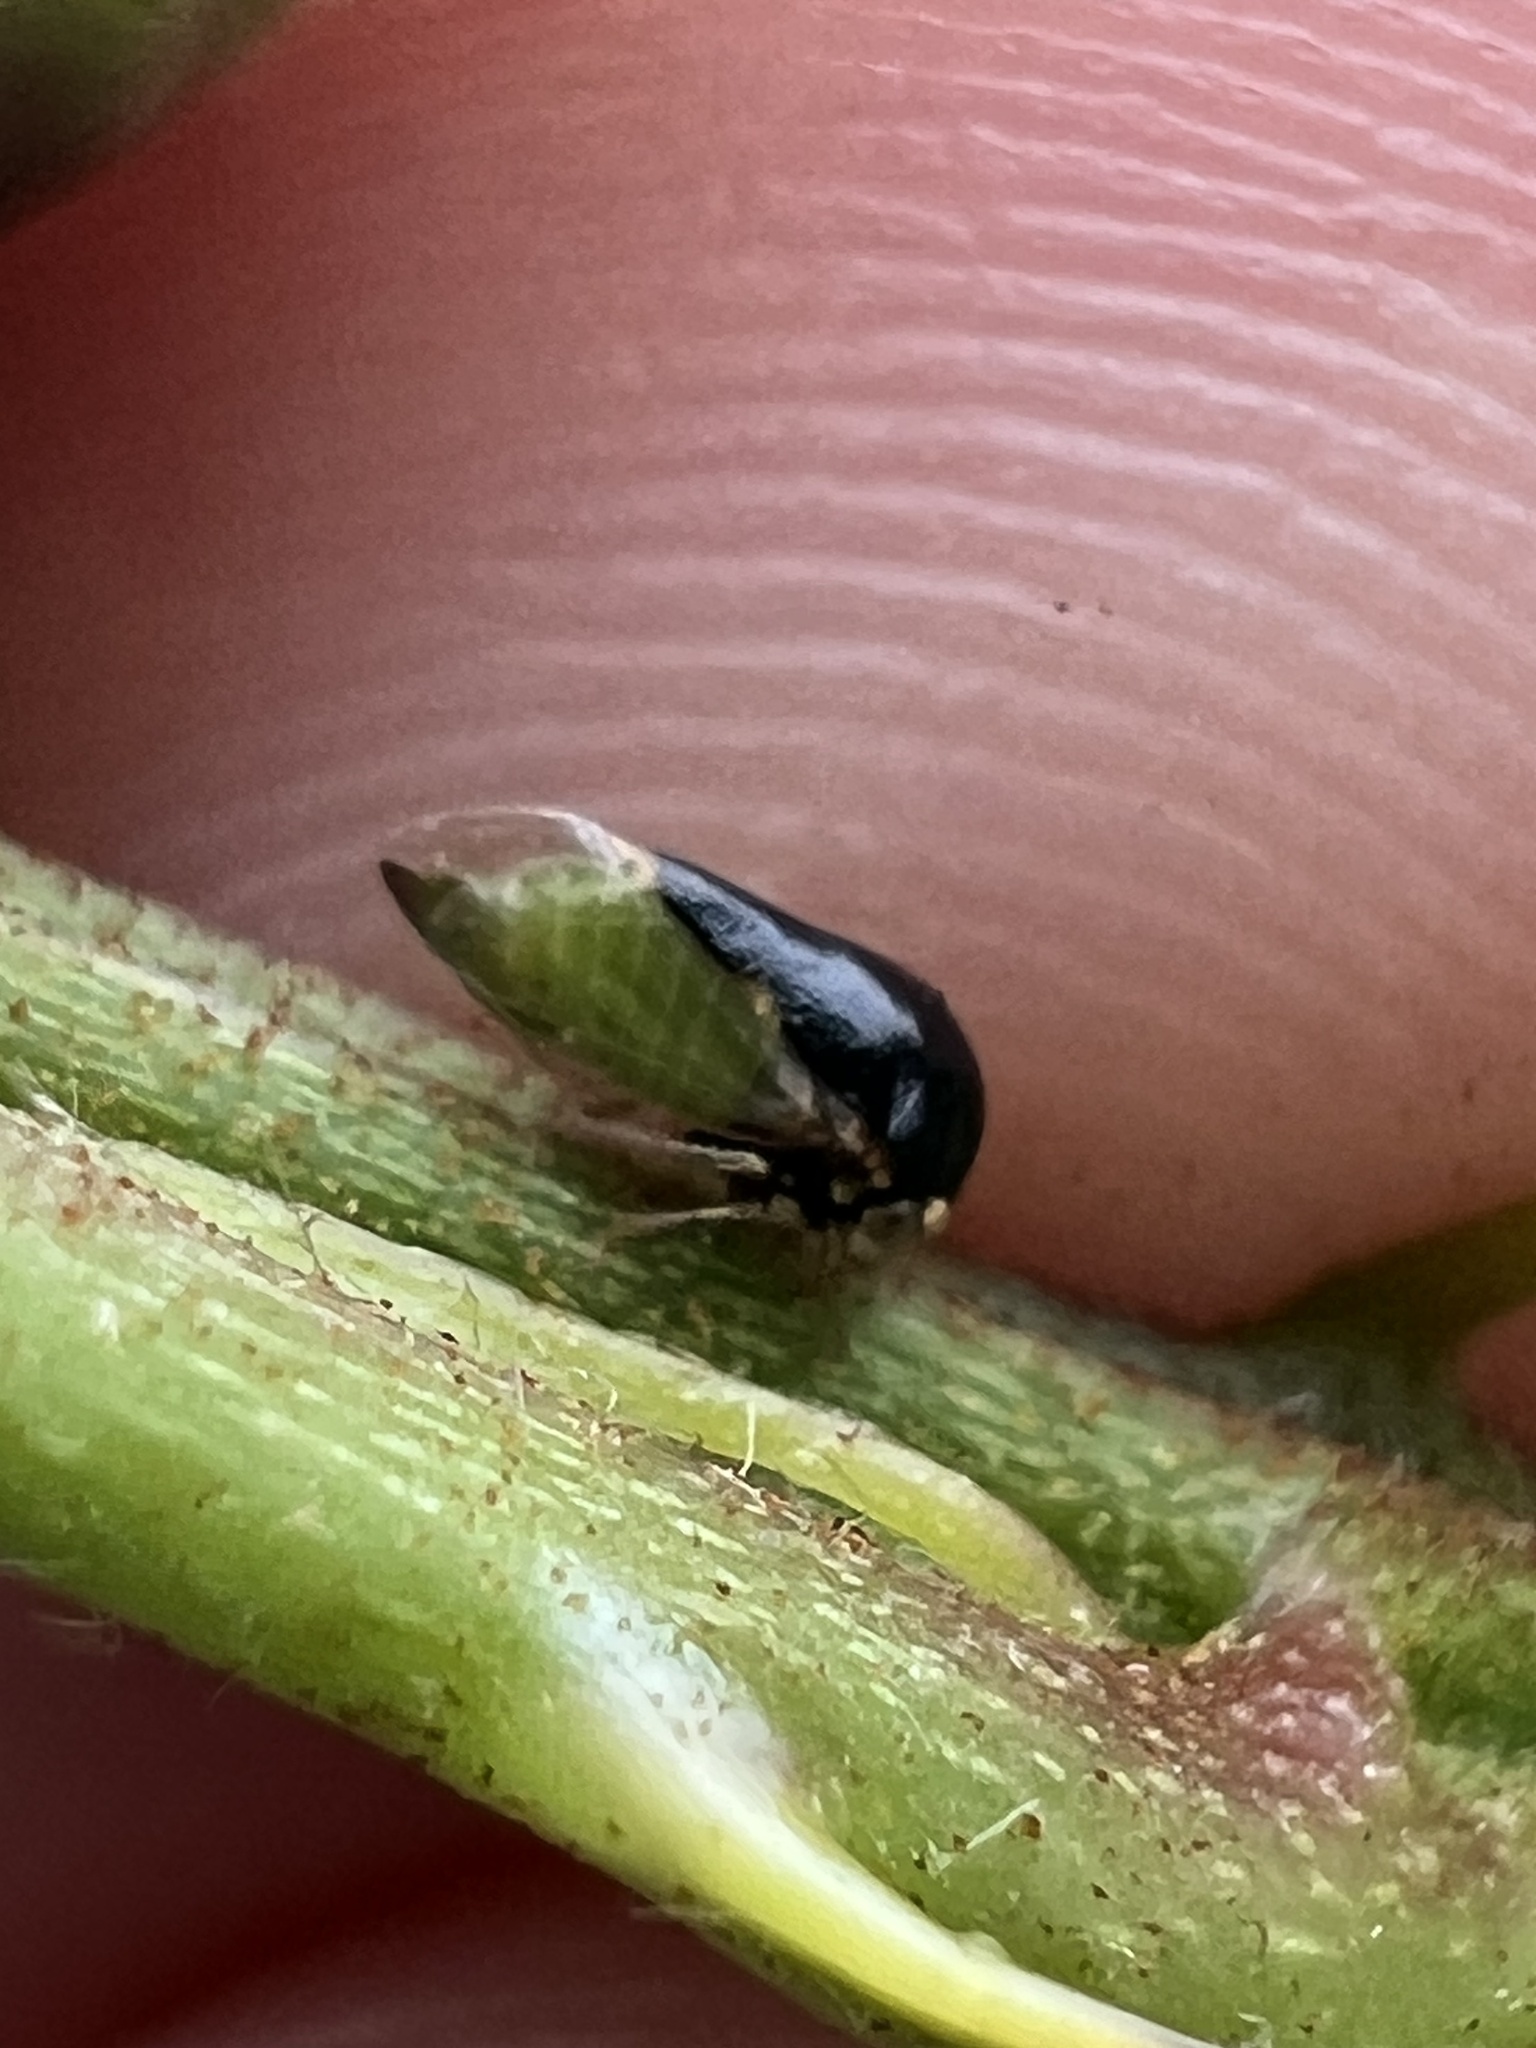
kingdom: Animalia
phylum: Arthropoda
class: Insecta
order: Hemiptera
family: Membracidae
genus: Micrutalis
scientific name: Micrutalis calva
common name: Honeylocust treehopper
